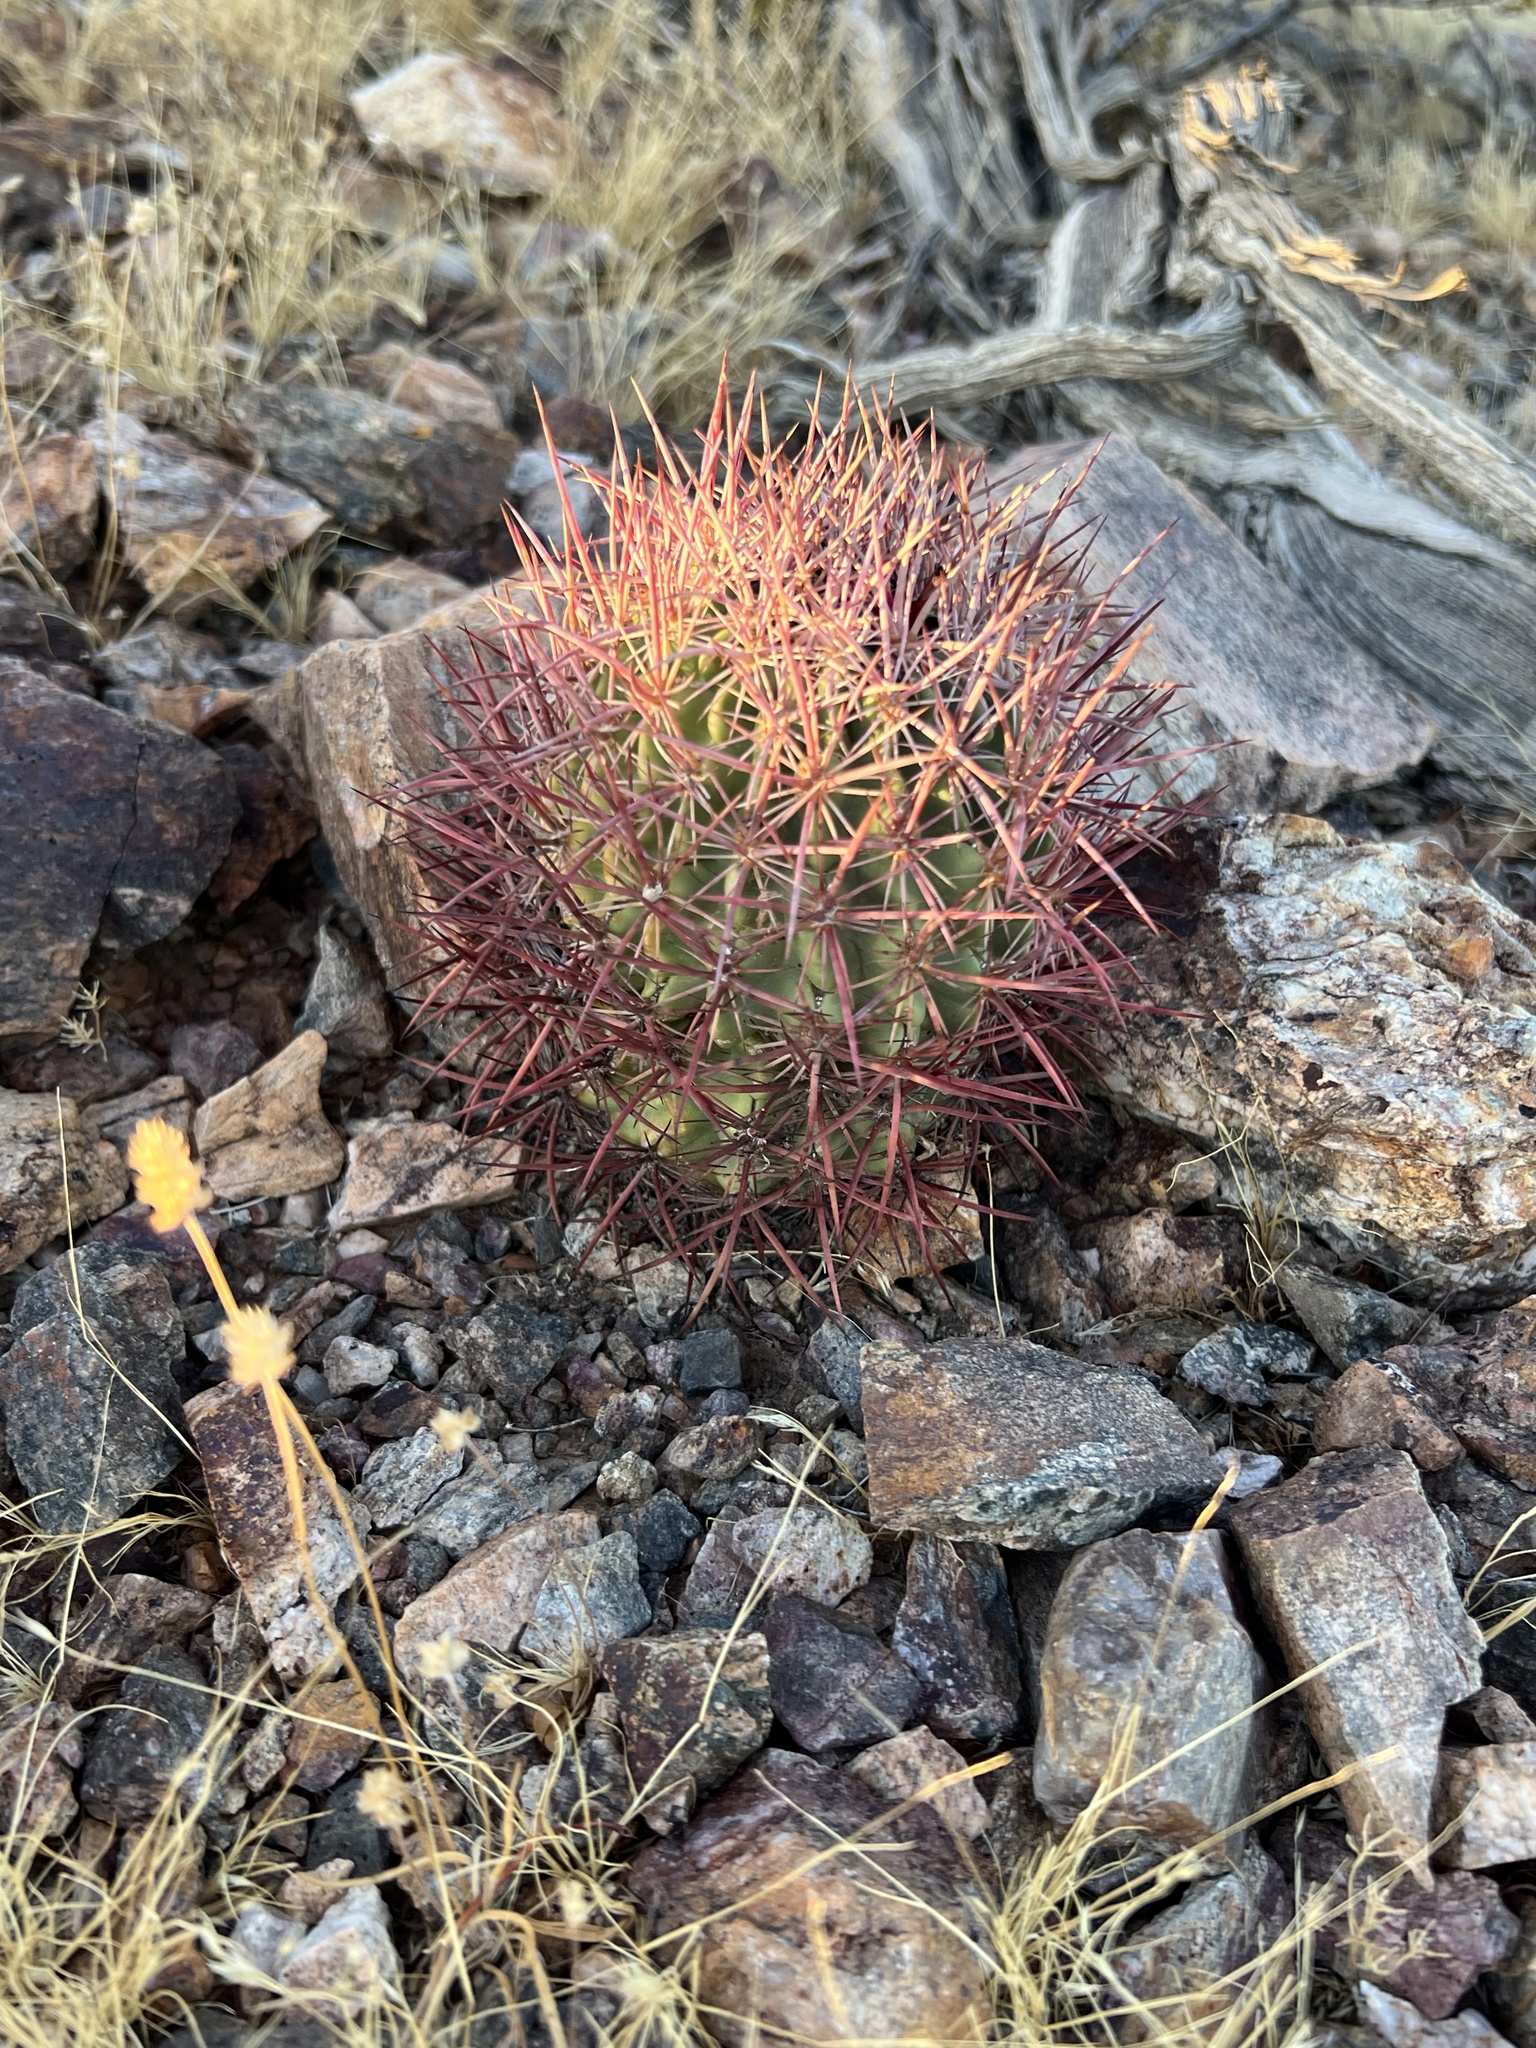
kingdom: Plantae
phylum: Tracheophyta
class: Magnoliopsida
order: Caryophyllales
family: Cactaceae
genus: Sclerocactus
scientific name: Sclerocactus johnsonii
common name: Eight-spine fishhook cactus
